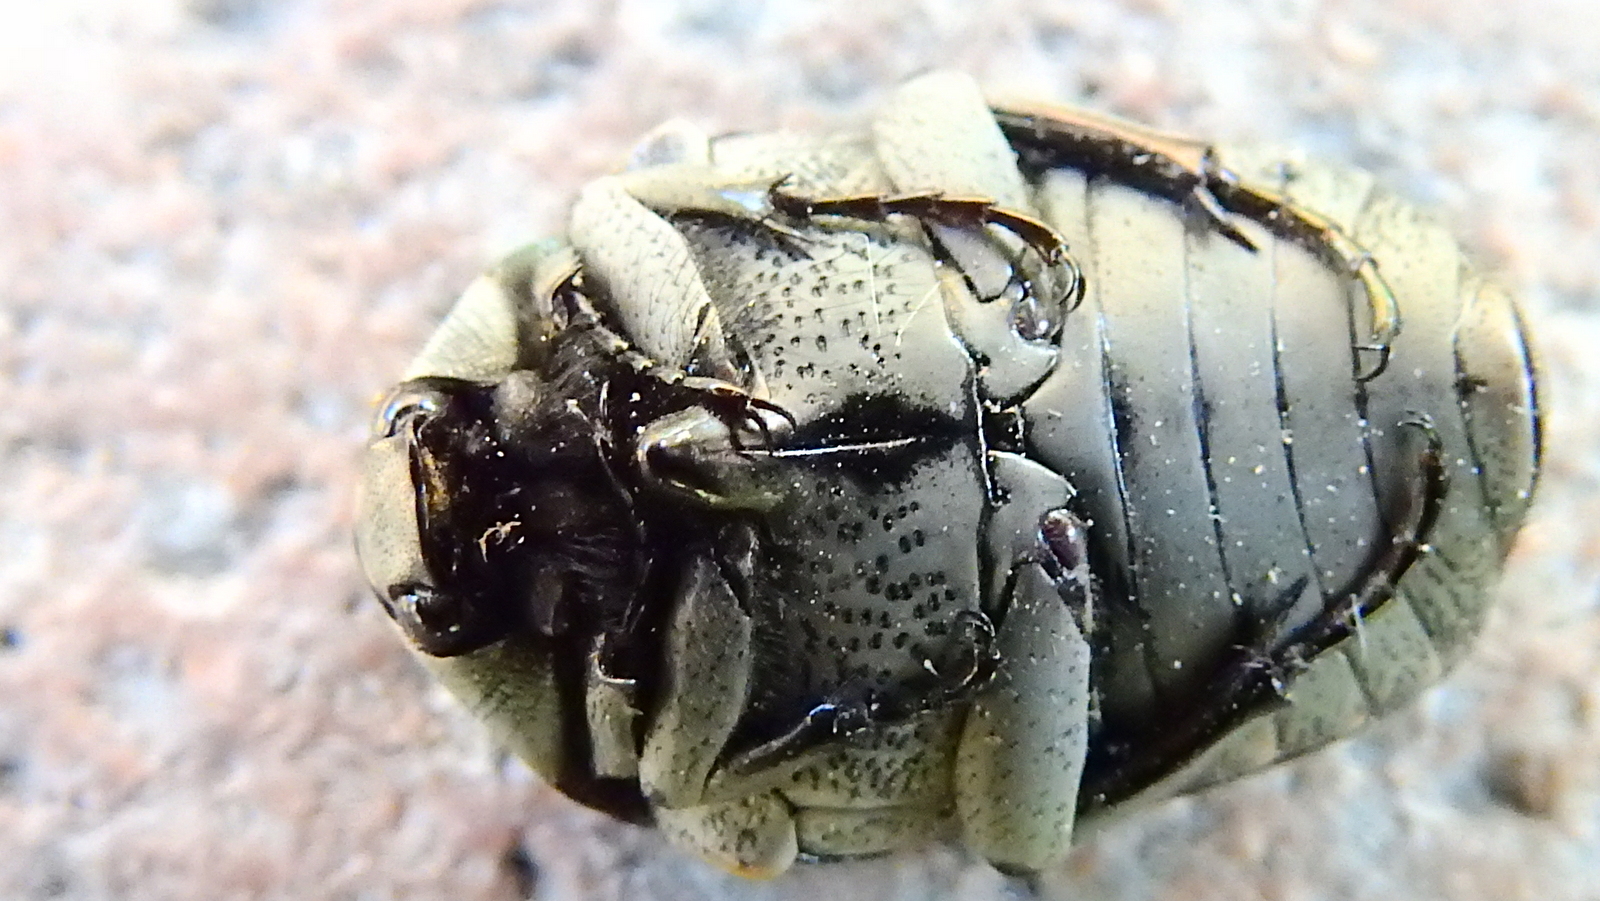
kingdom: Animalia
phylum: Arthropoda
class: Insecta
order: Coleoptera
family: Scarabaeidae
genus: Gymnetis
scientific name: Gymnetis litigiosa
